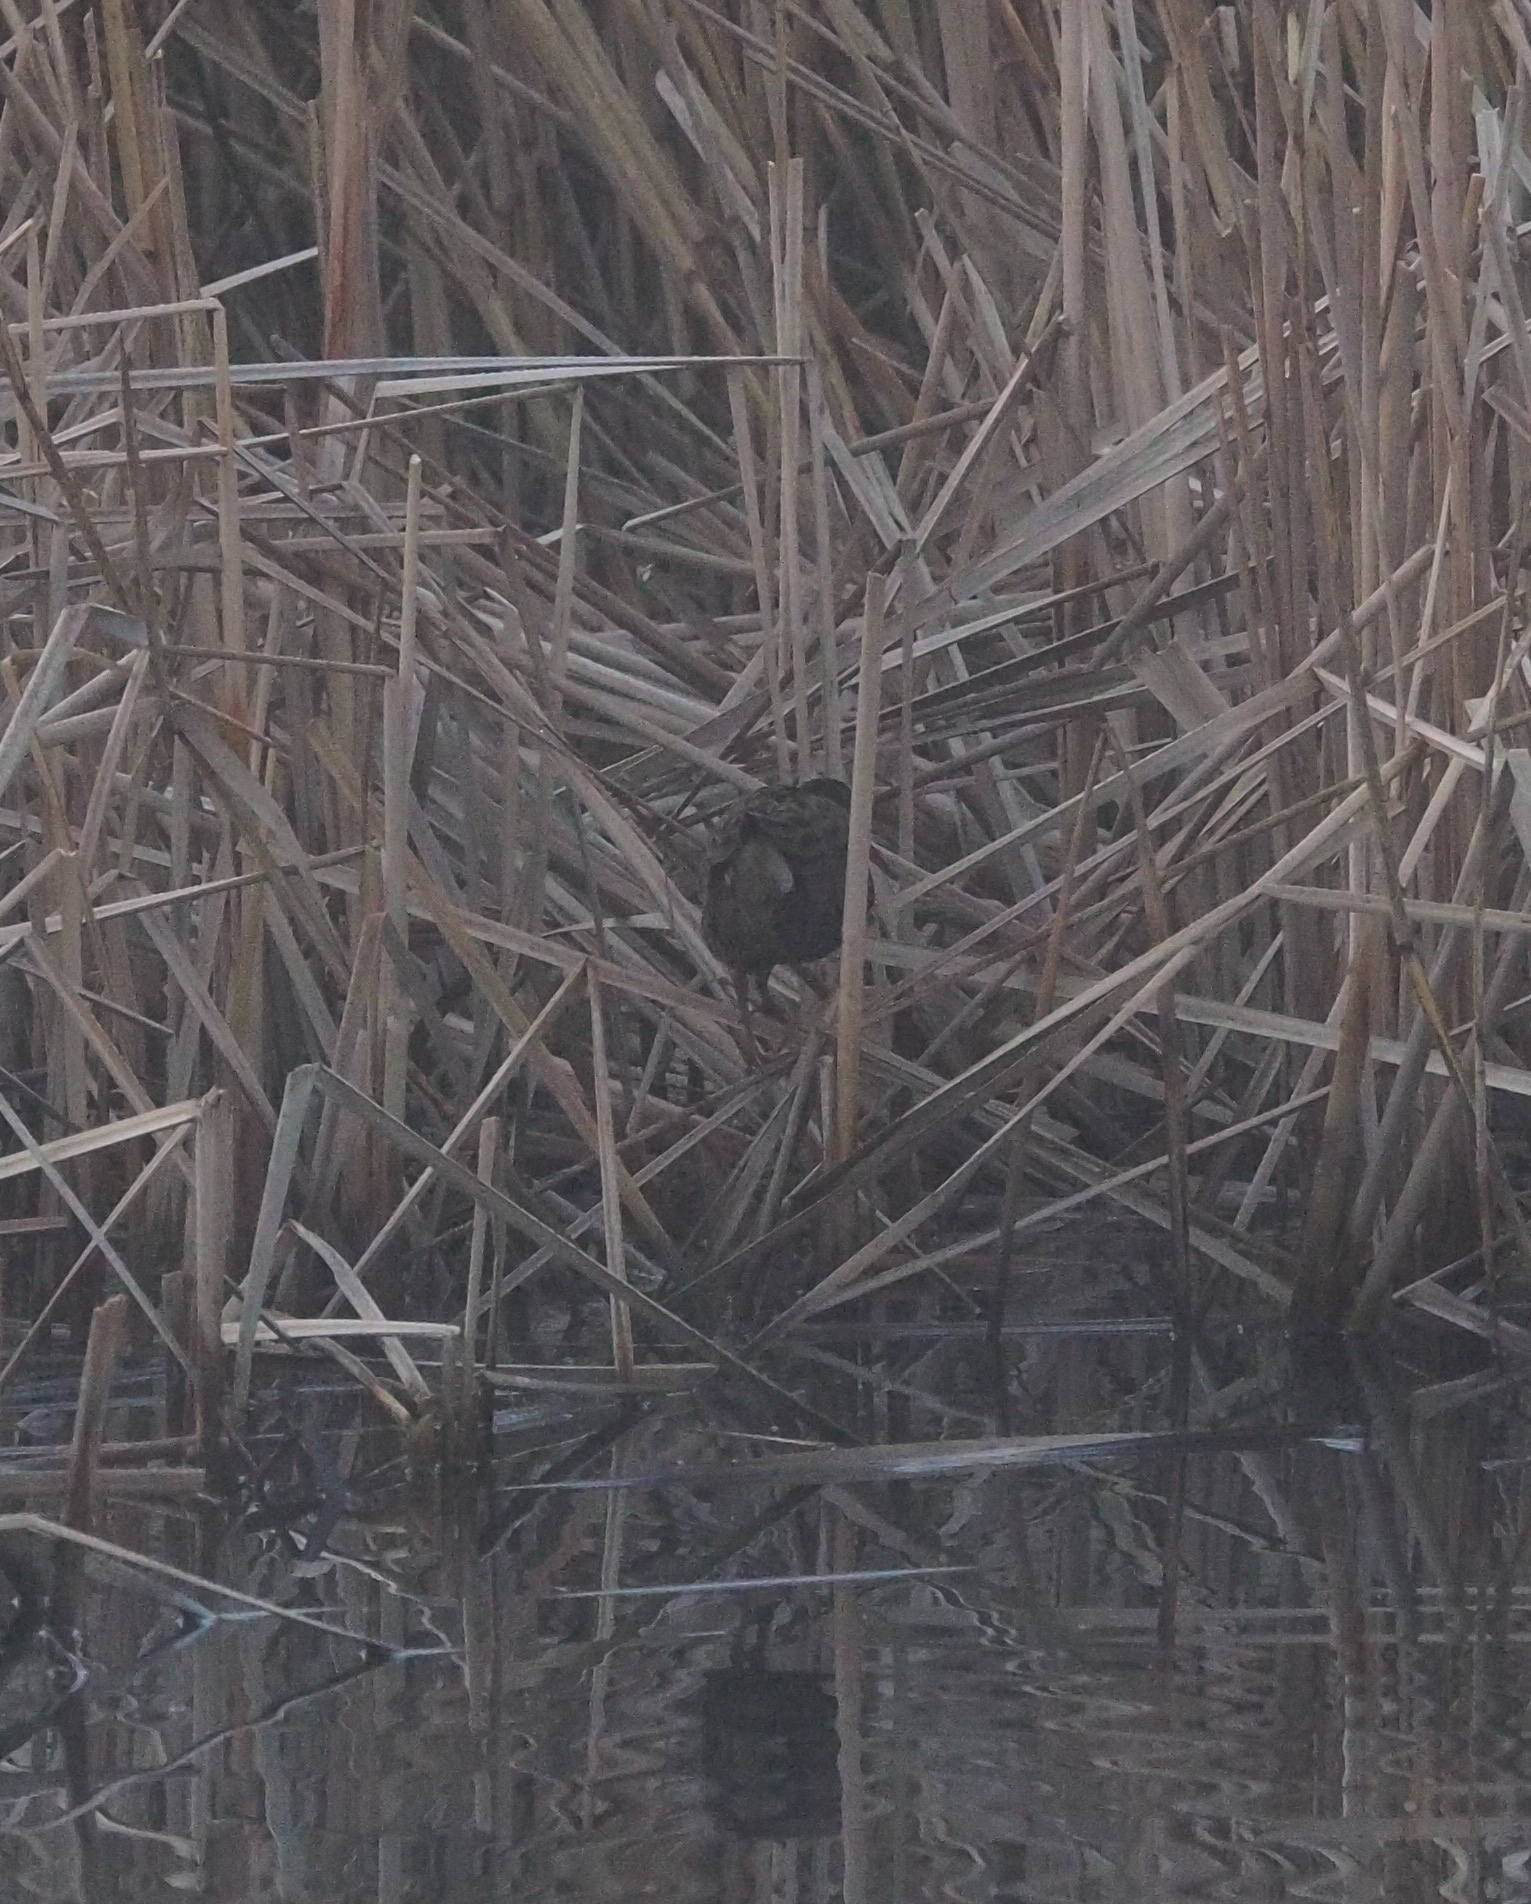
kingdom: Animalia
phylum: Chordata
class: Aves
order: Gruiformes
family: Rallidae
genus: Rallus
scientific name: Rallus aquaticus
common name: Water rail
